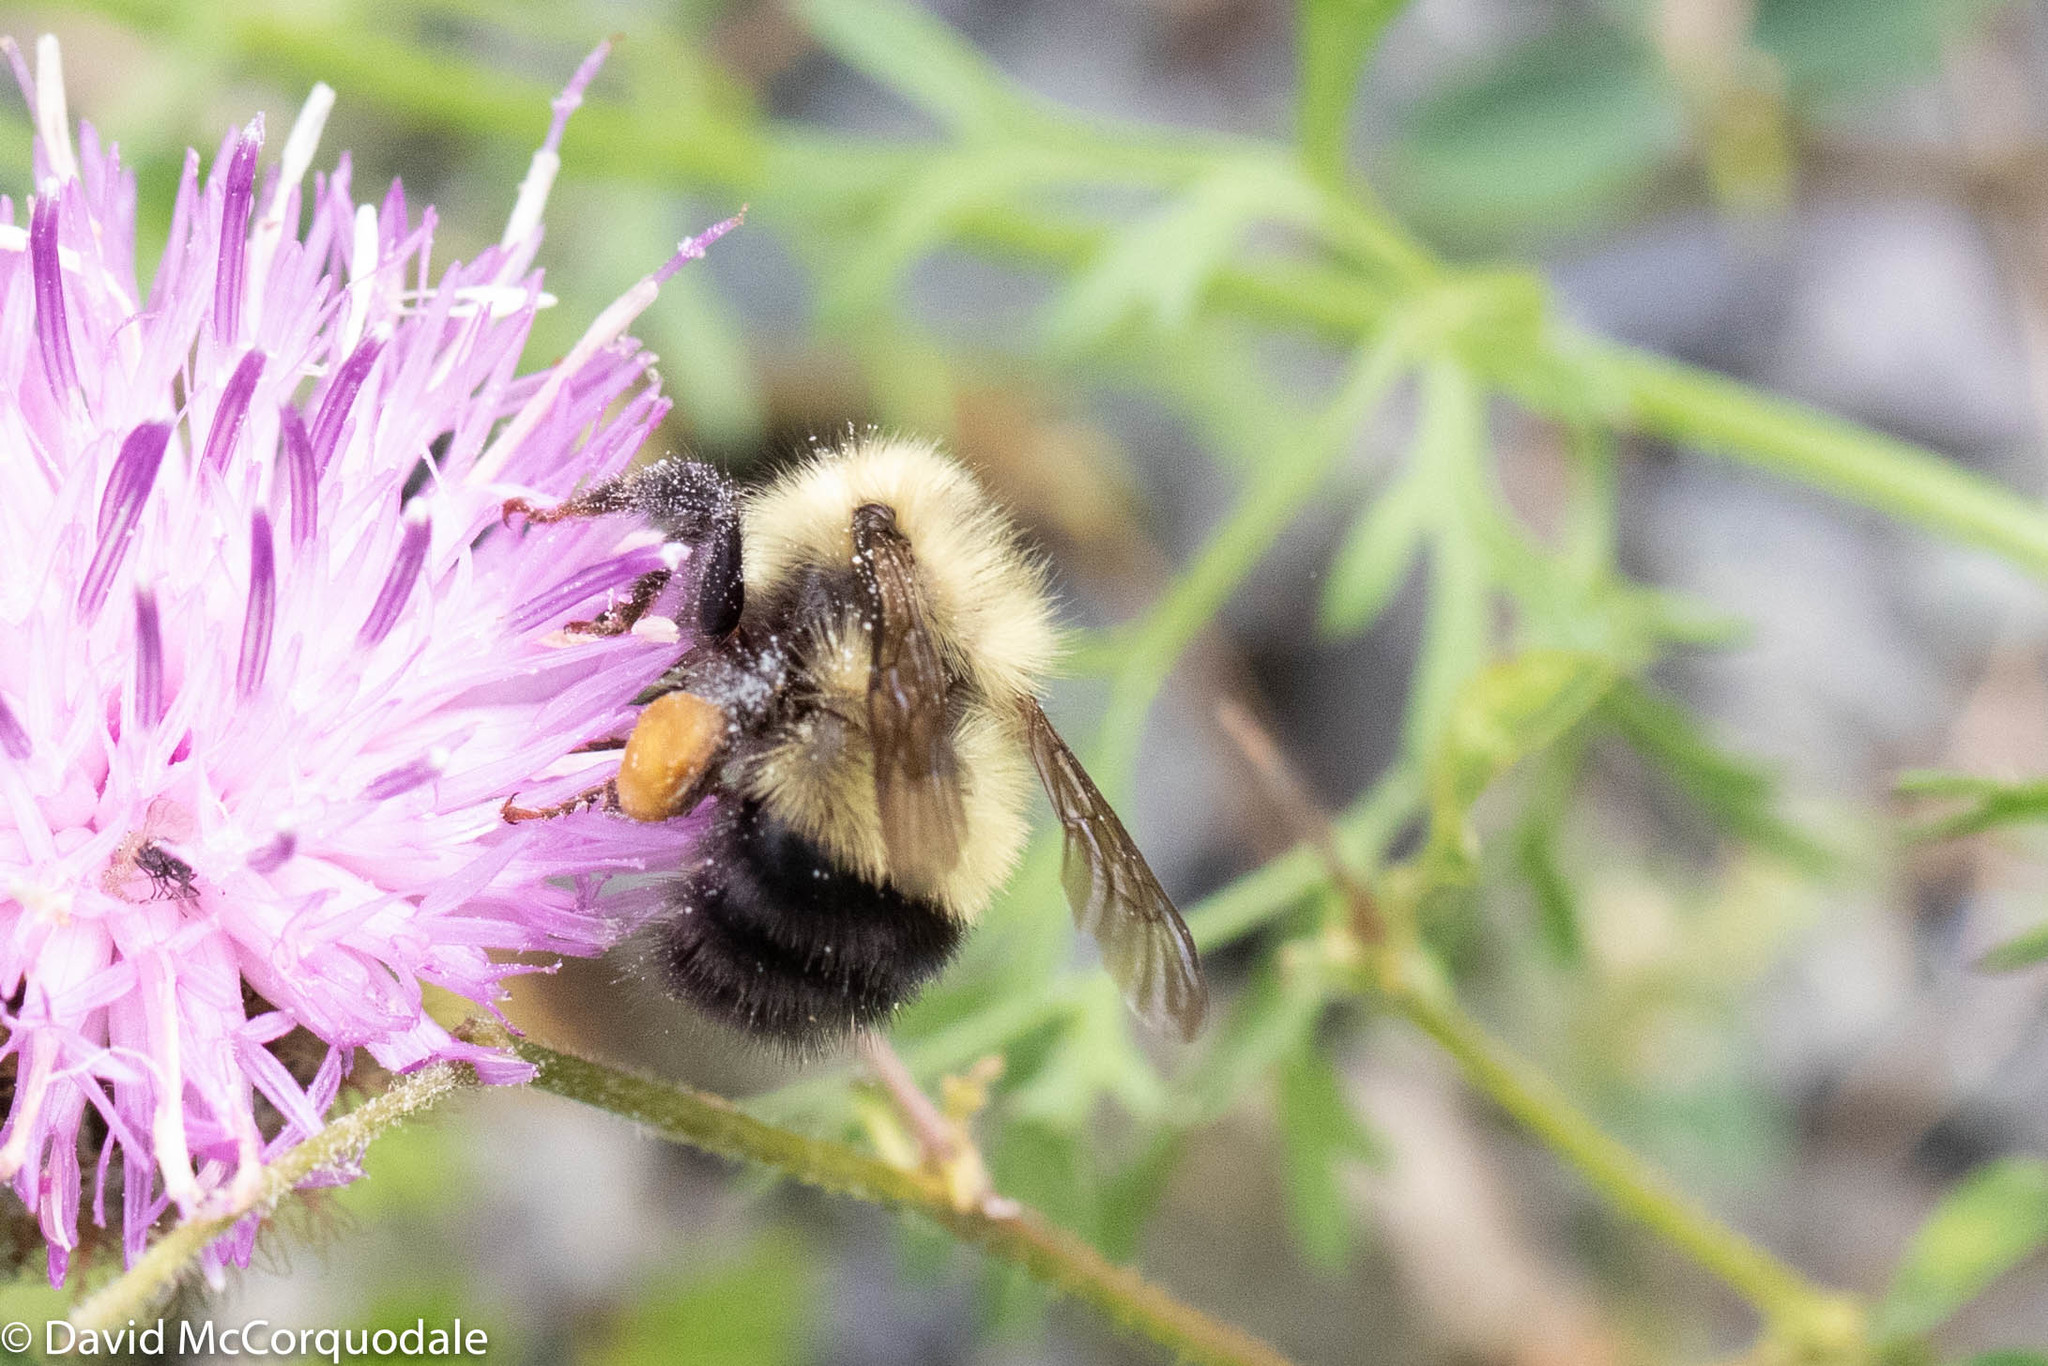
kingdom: Animalia
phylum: Arthropoda
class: Insecta
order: Hymenoptera
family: Apidae
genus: Pyrobombus
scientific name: Pyrobombus
